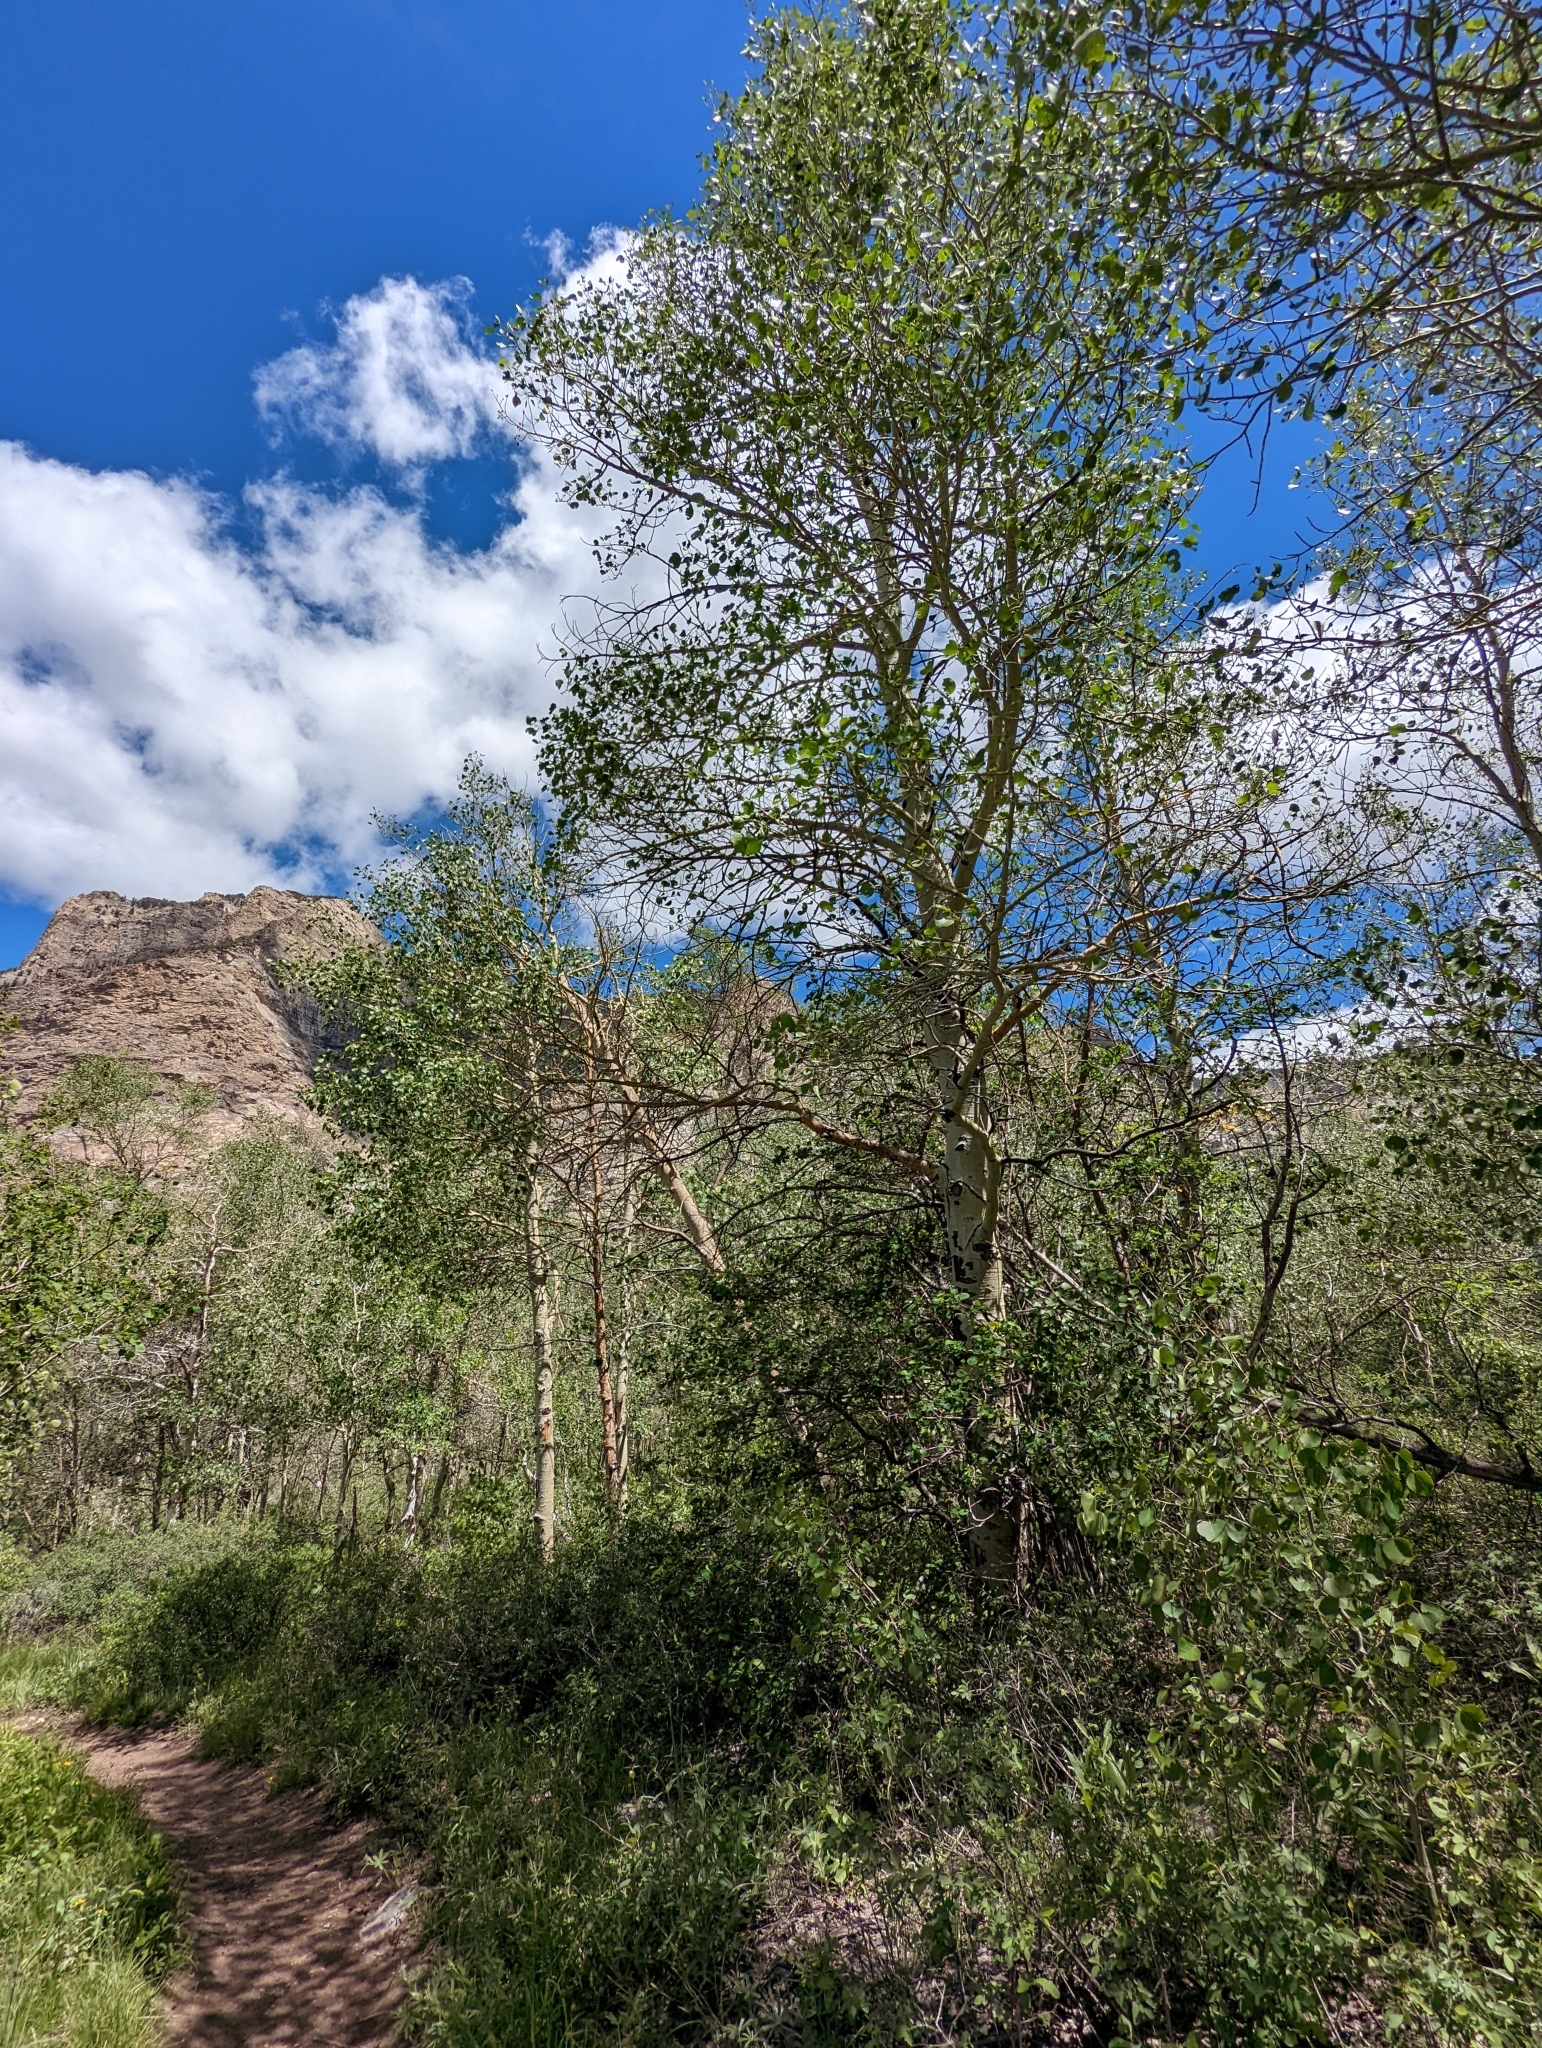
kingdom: Plantae
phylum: Tracheophyta
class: Magnoliopsida
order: Malpighiales
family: Salicaceae
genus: Populus
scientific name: Populus tremuloides
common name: Quaking aspen
